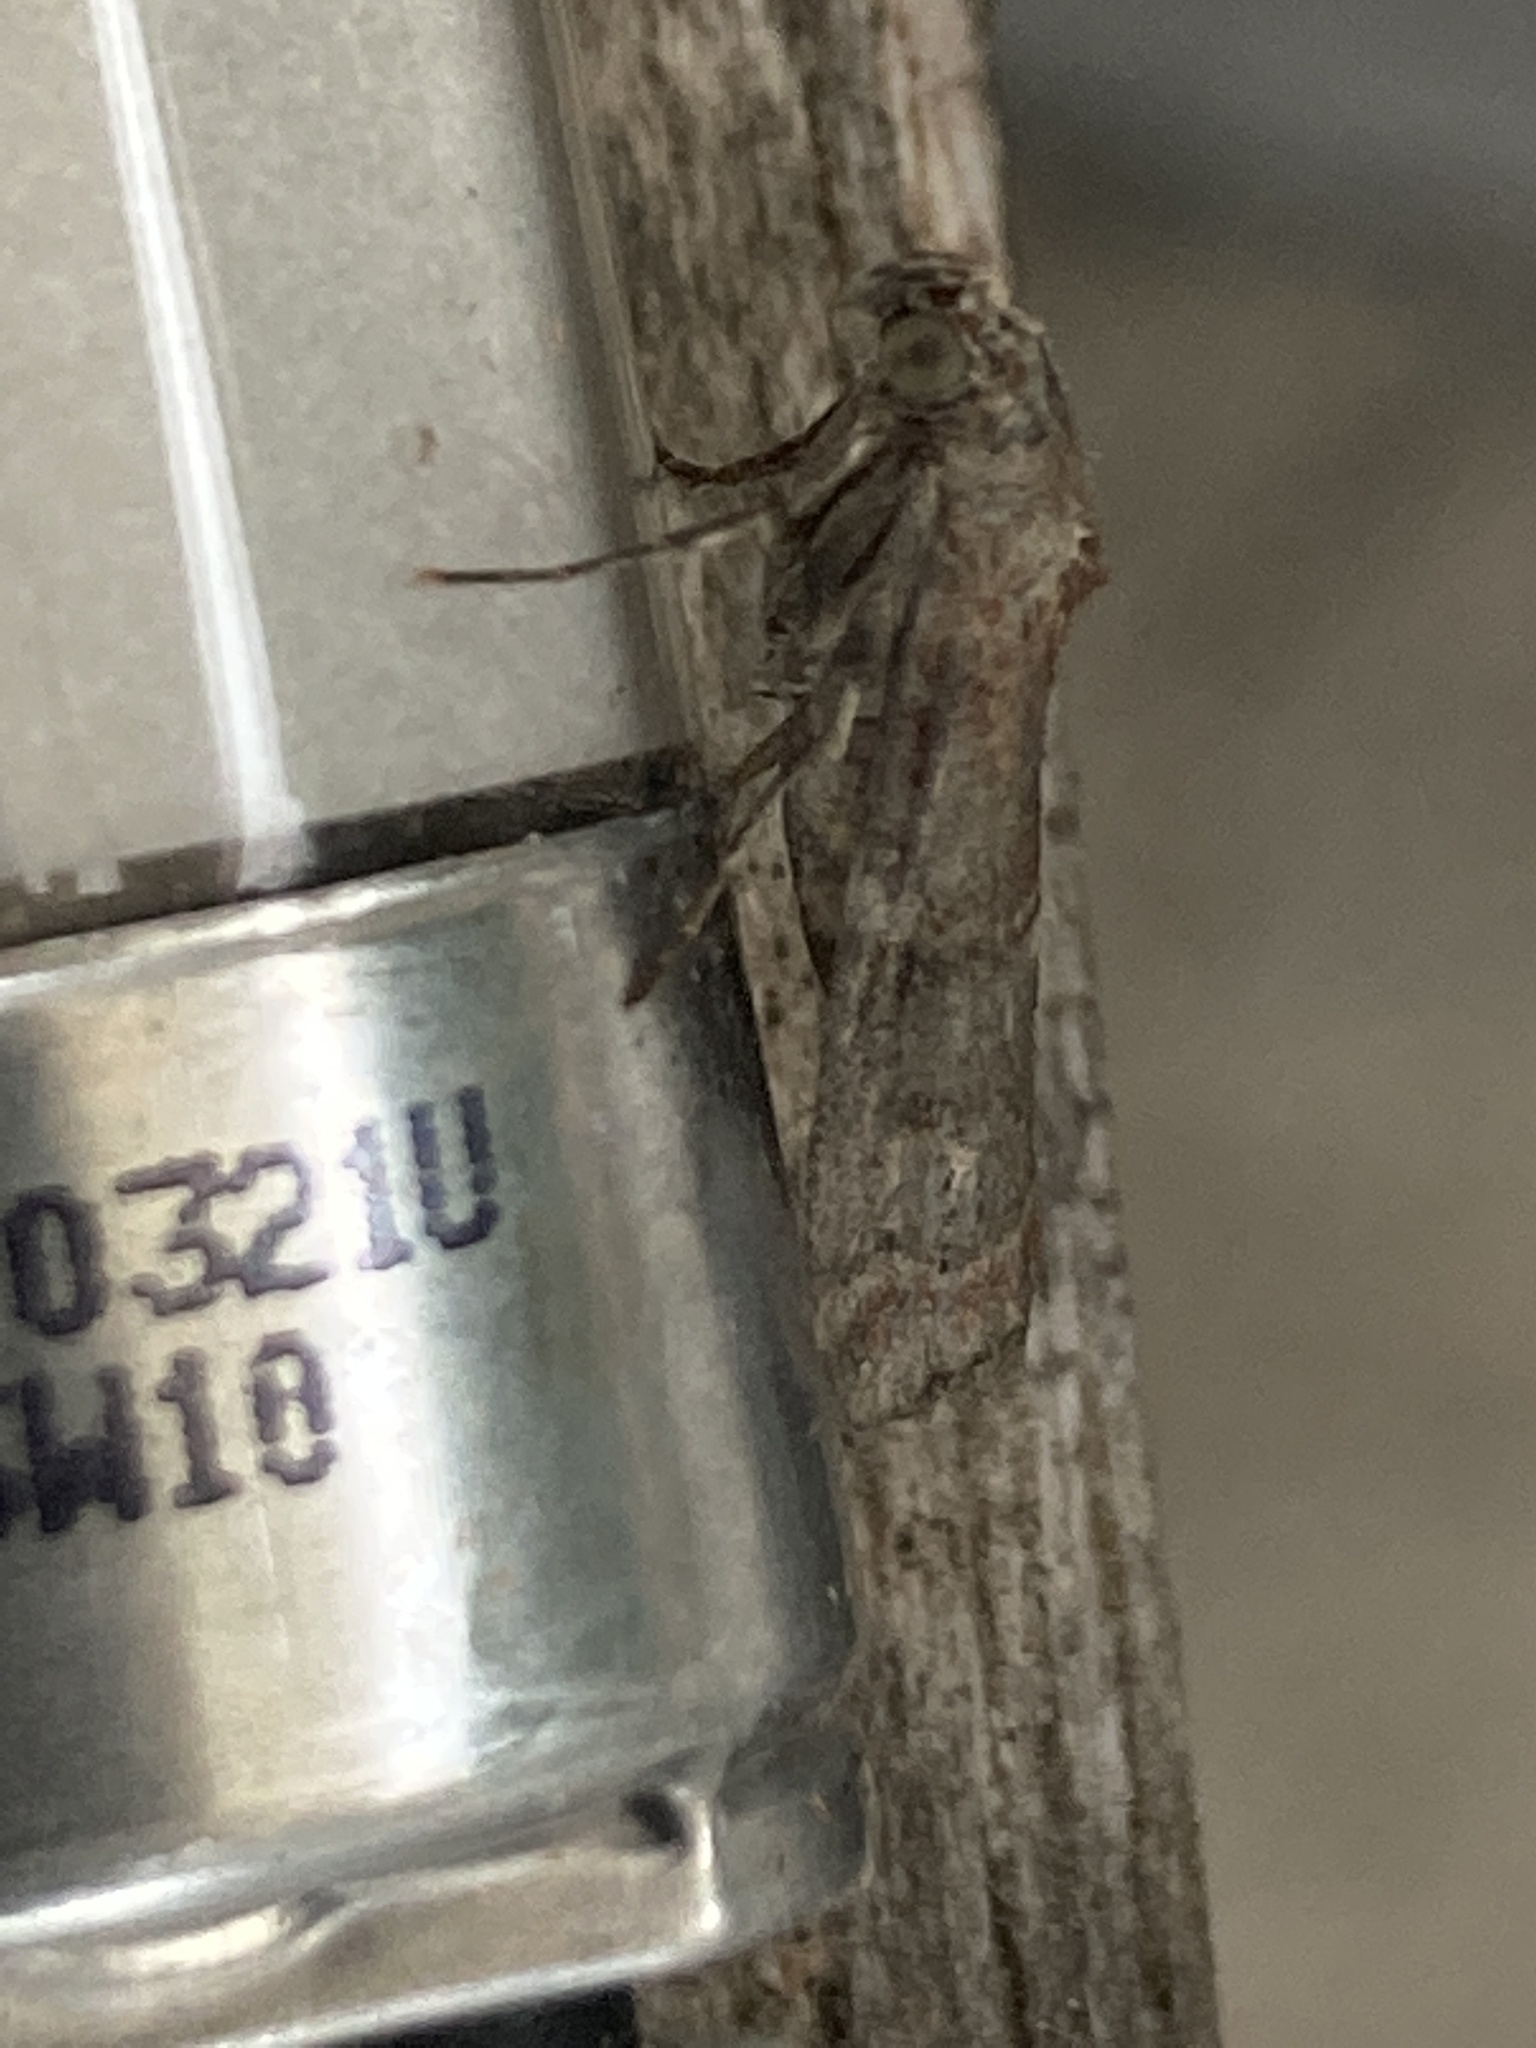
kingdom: Animalia
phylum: Arthropoda
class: Insecta
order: Lepidoptera
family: Pyralidae
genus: Phycita
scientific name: Phycita roborella
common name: Dotted oak knot-horn
